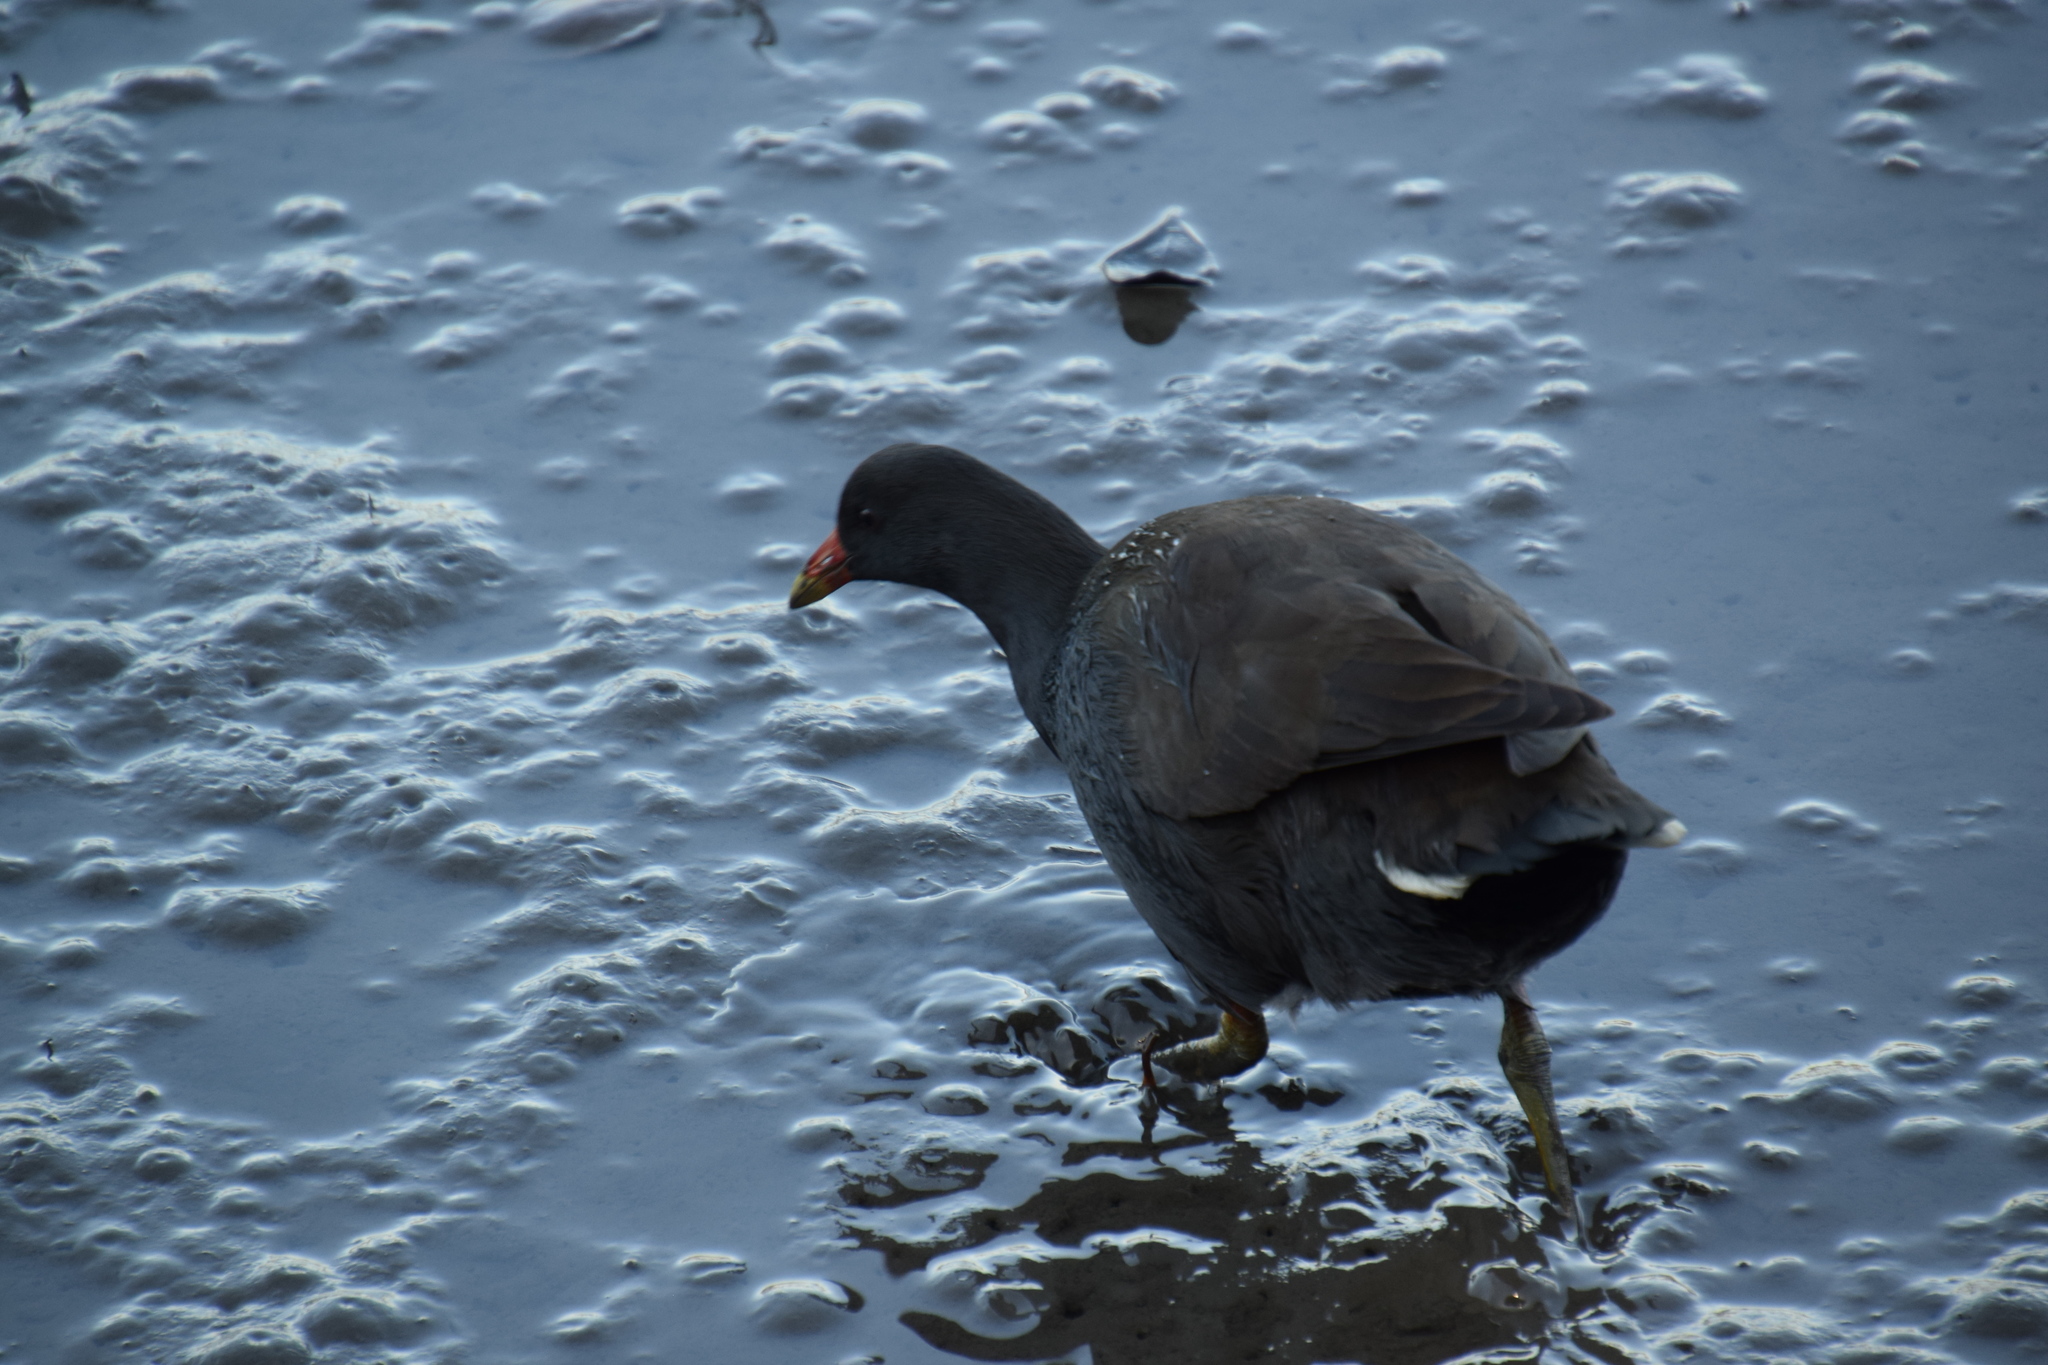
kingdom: Animalia
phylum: Chordata
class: Aves
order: Gruiformes
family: Rallidae
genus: Gallinula
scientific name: Gallinula tenebrosa
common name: Dusky moorhen
